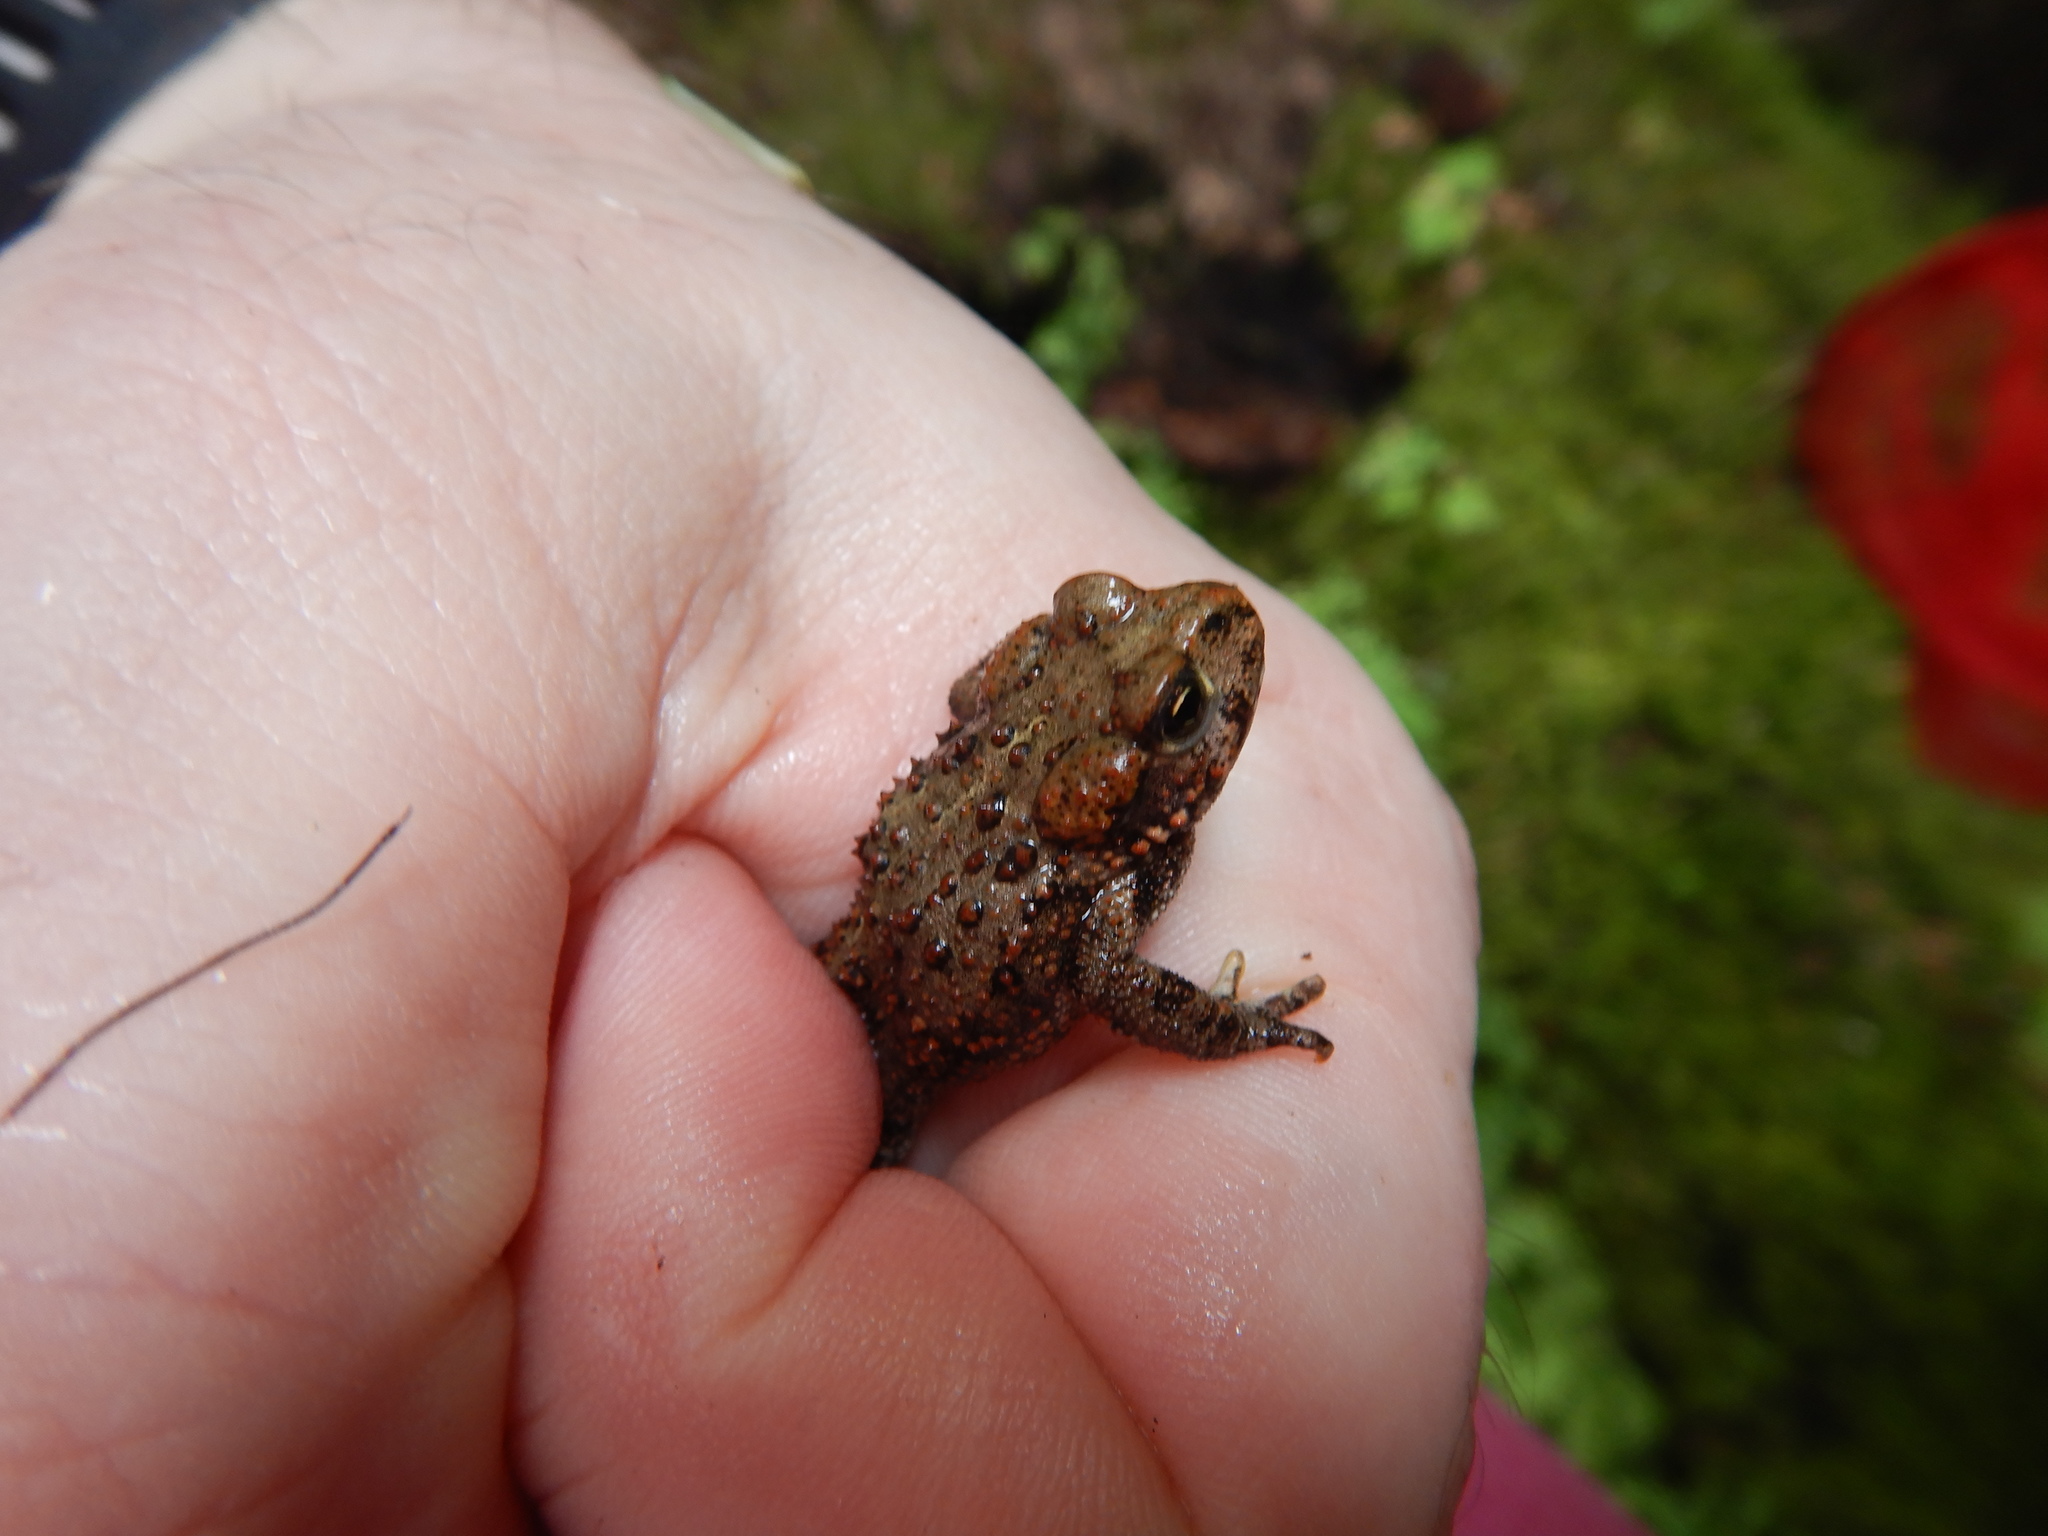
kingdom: Animalia
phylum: Chordata
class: Amphibia
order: Anura
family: Bufonidae
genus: Anaxyrus
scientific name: Anaxyrus boreas
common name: Western toad
